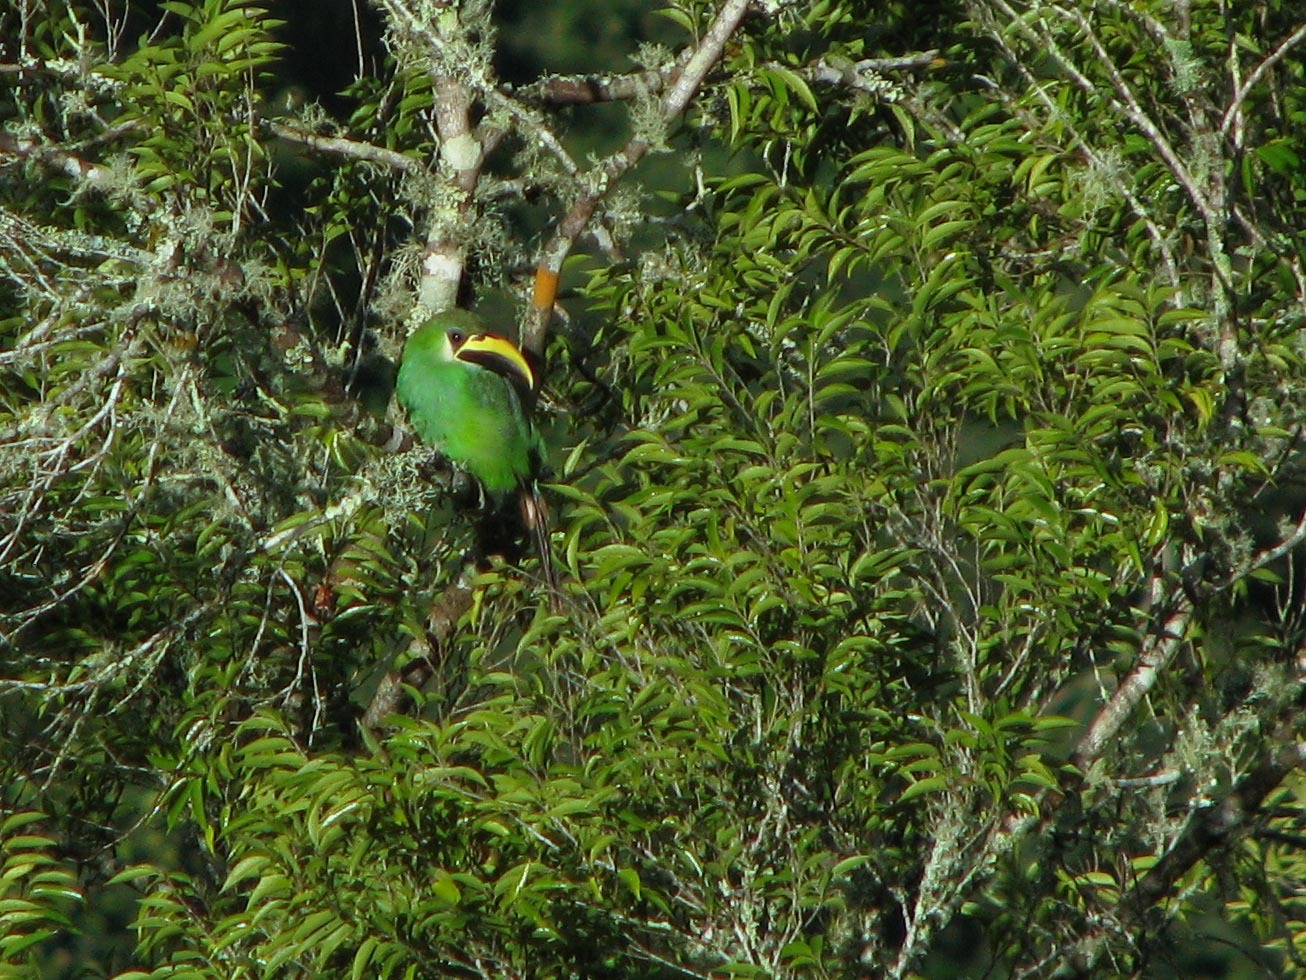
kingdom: Animalia
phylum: Chordata
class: Aves
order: Piciformes
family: Ramphastidae
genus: Aulacorhynchus
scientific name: Aulacorhynchus prasinus
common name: Emerald toucanet
